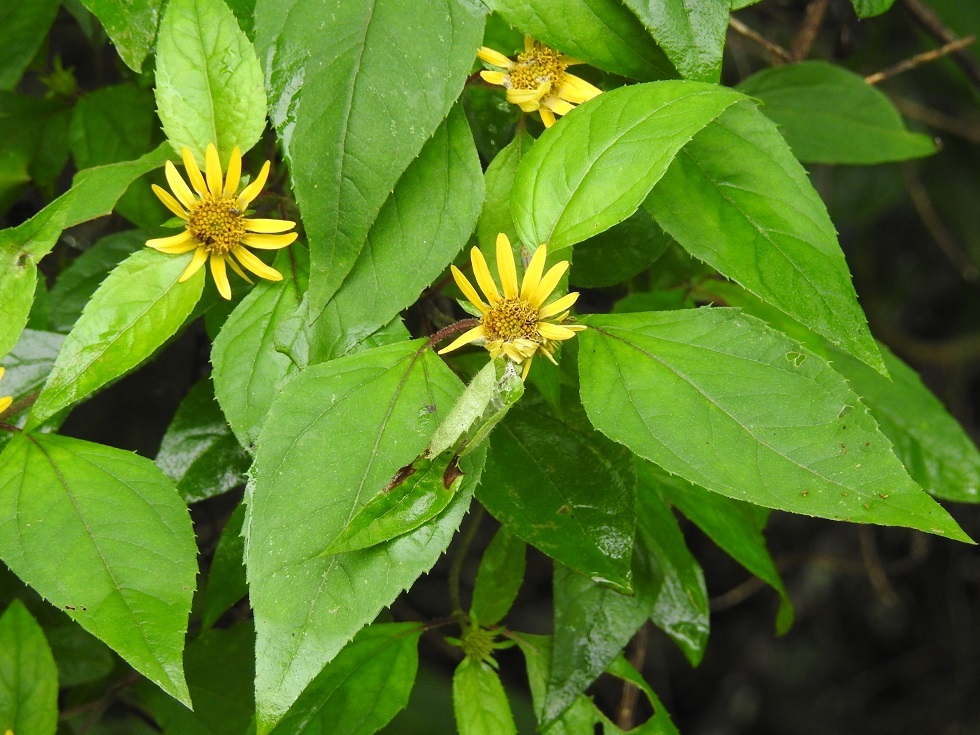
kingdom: Plantae
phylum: Tracheophyta
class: Magnoliopsida
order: Asterales
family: Asteraceae
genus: Philactis
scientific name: Philactis zinnioides
